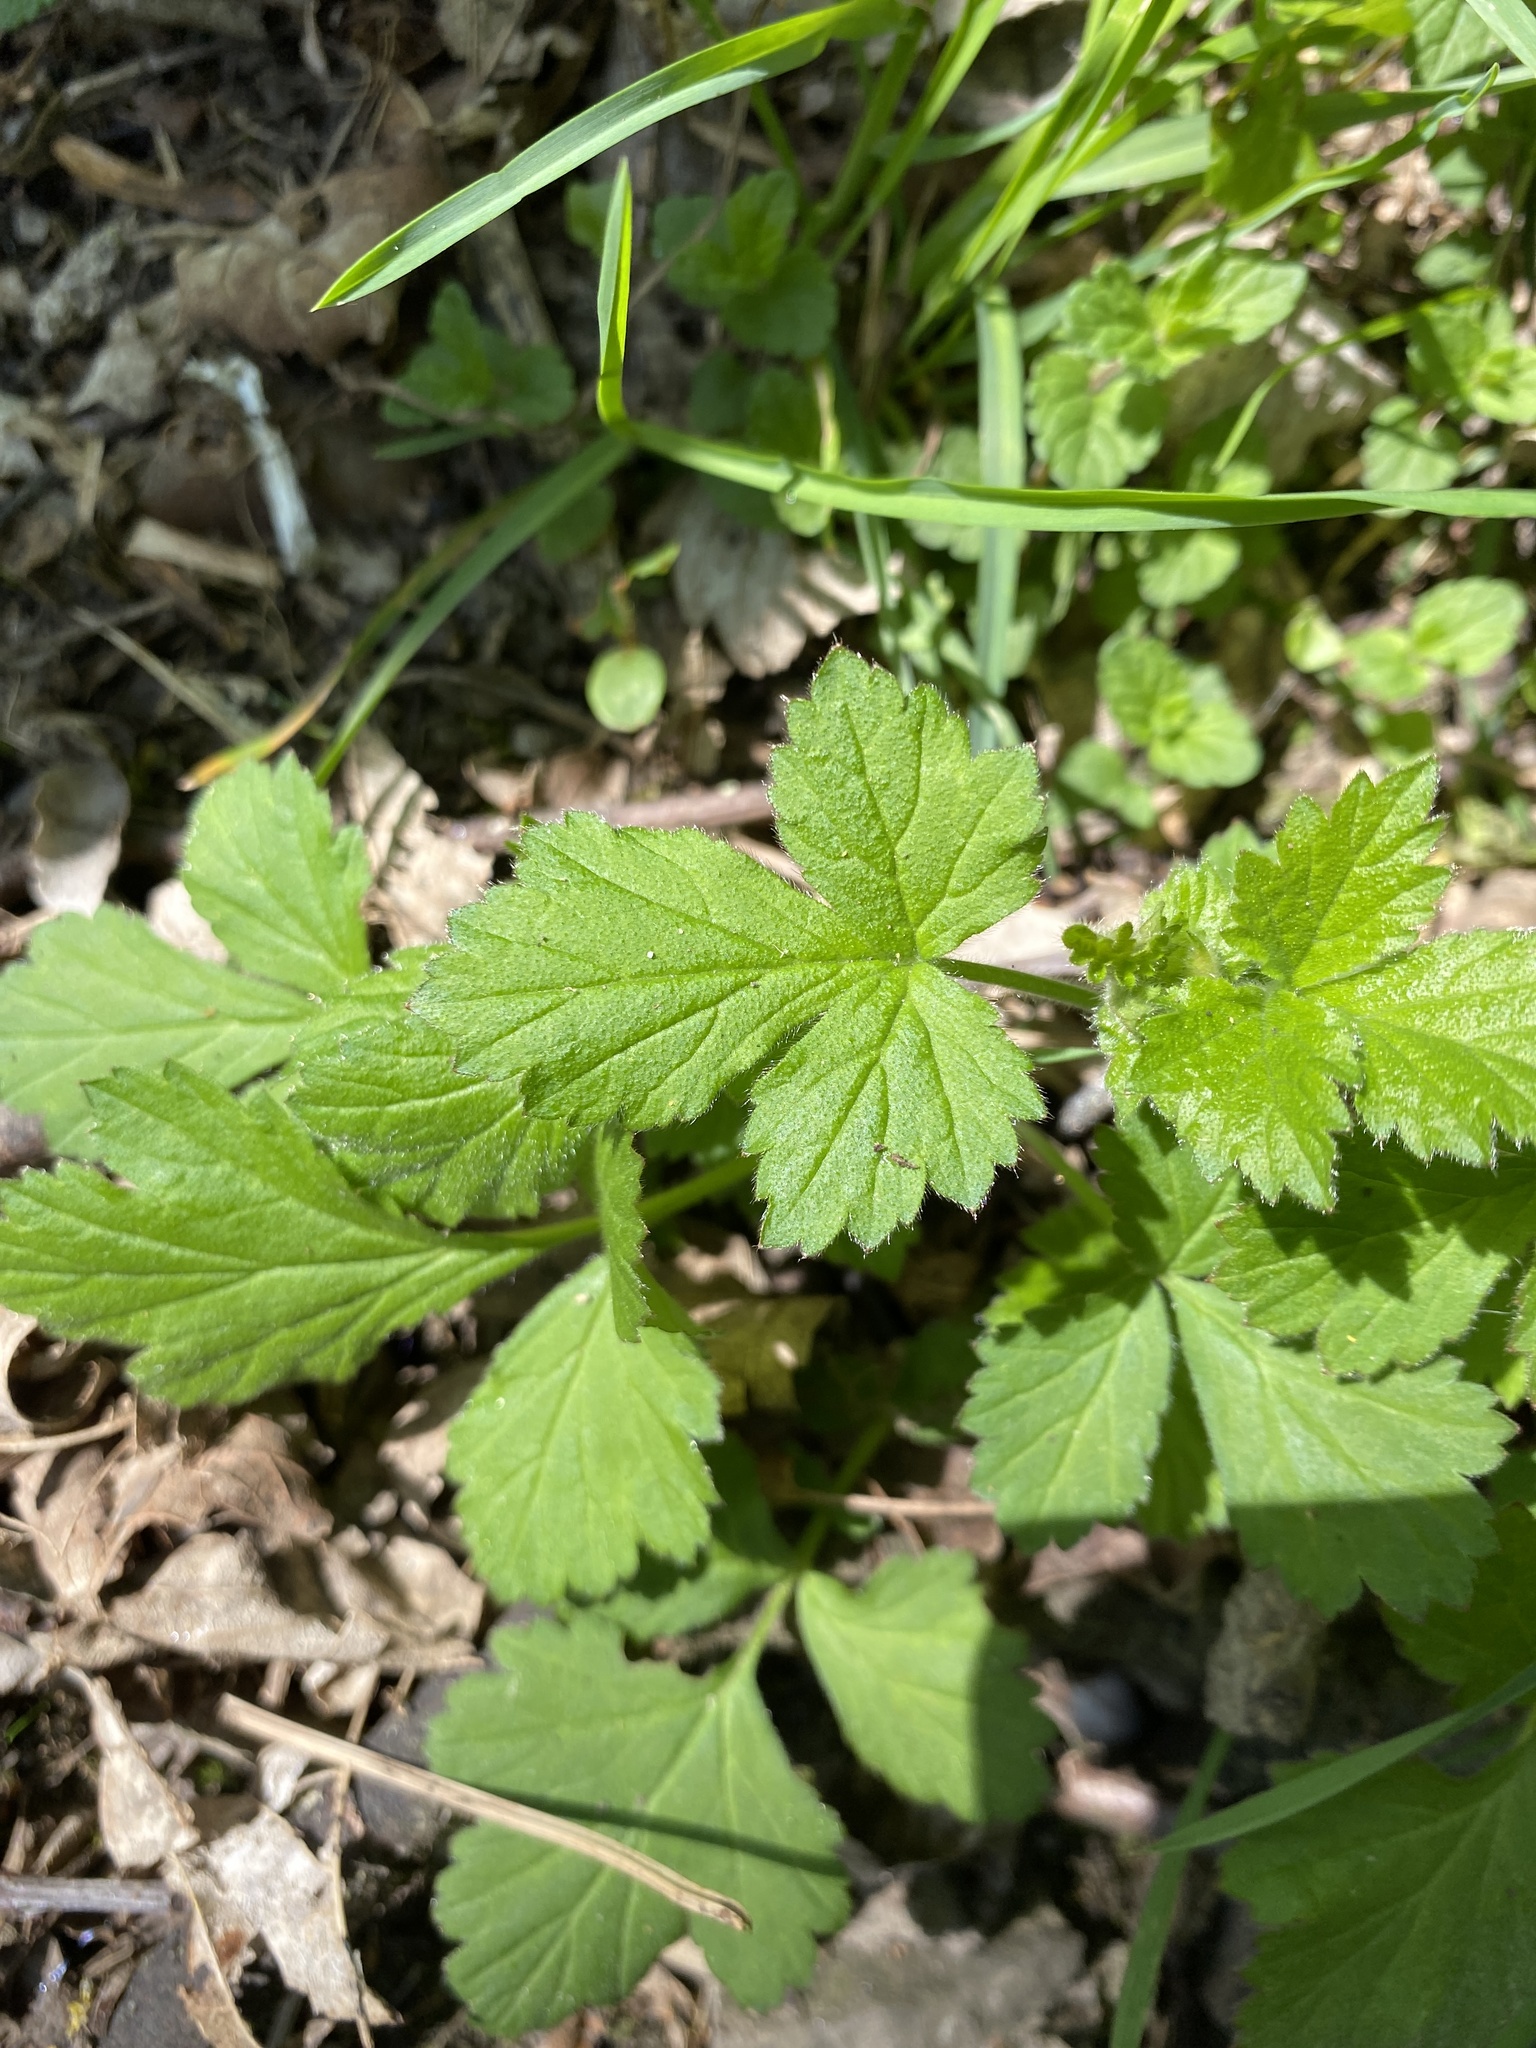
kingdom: Plantae
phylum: Tracheophyta
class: Magnoliopsida
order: Rosales
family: Rosaceae
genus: Geum
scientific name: Geum urbanum
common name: Wood avens
